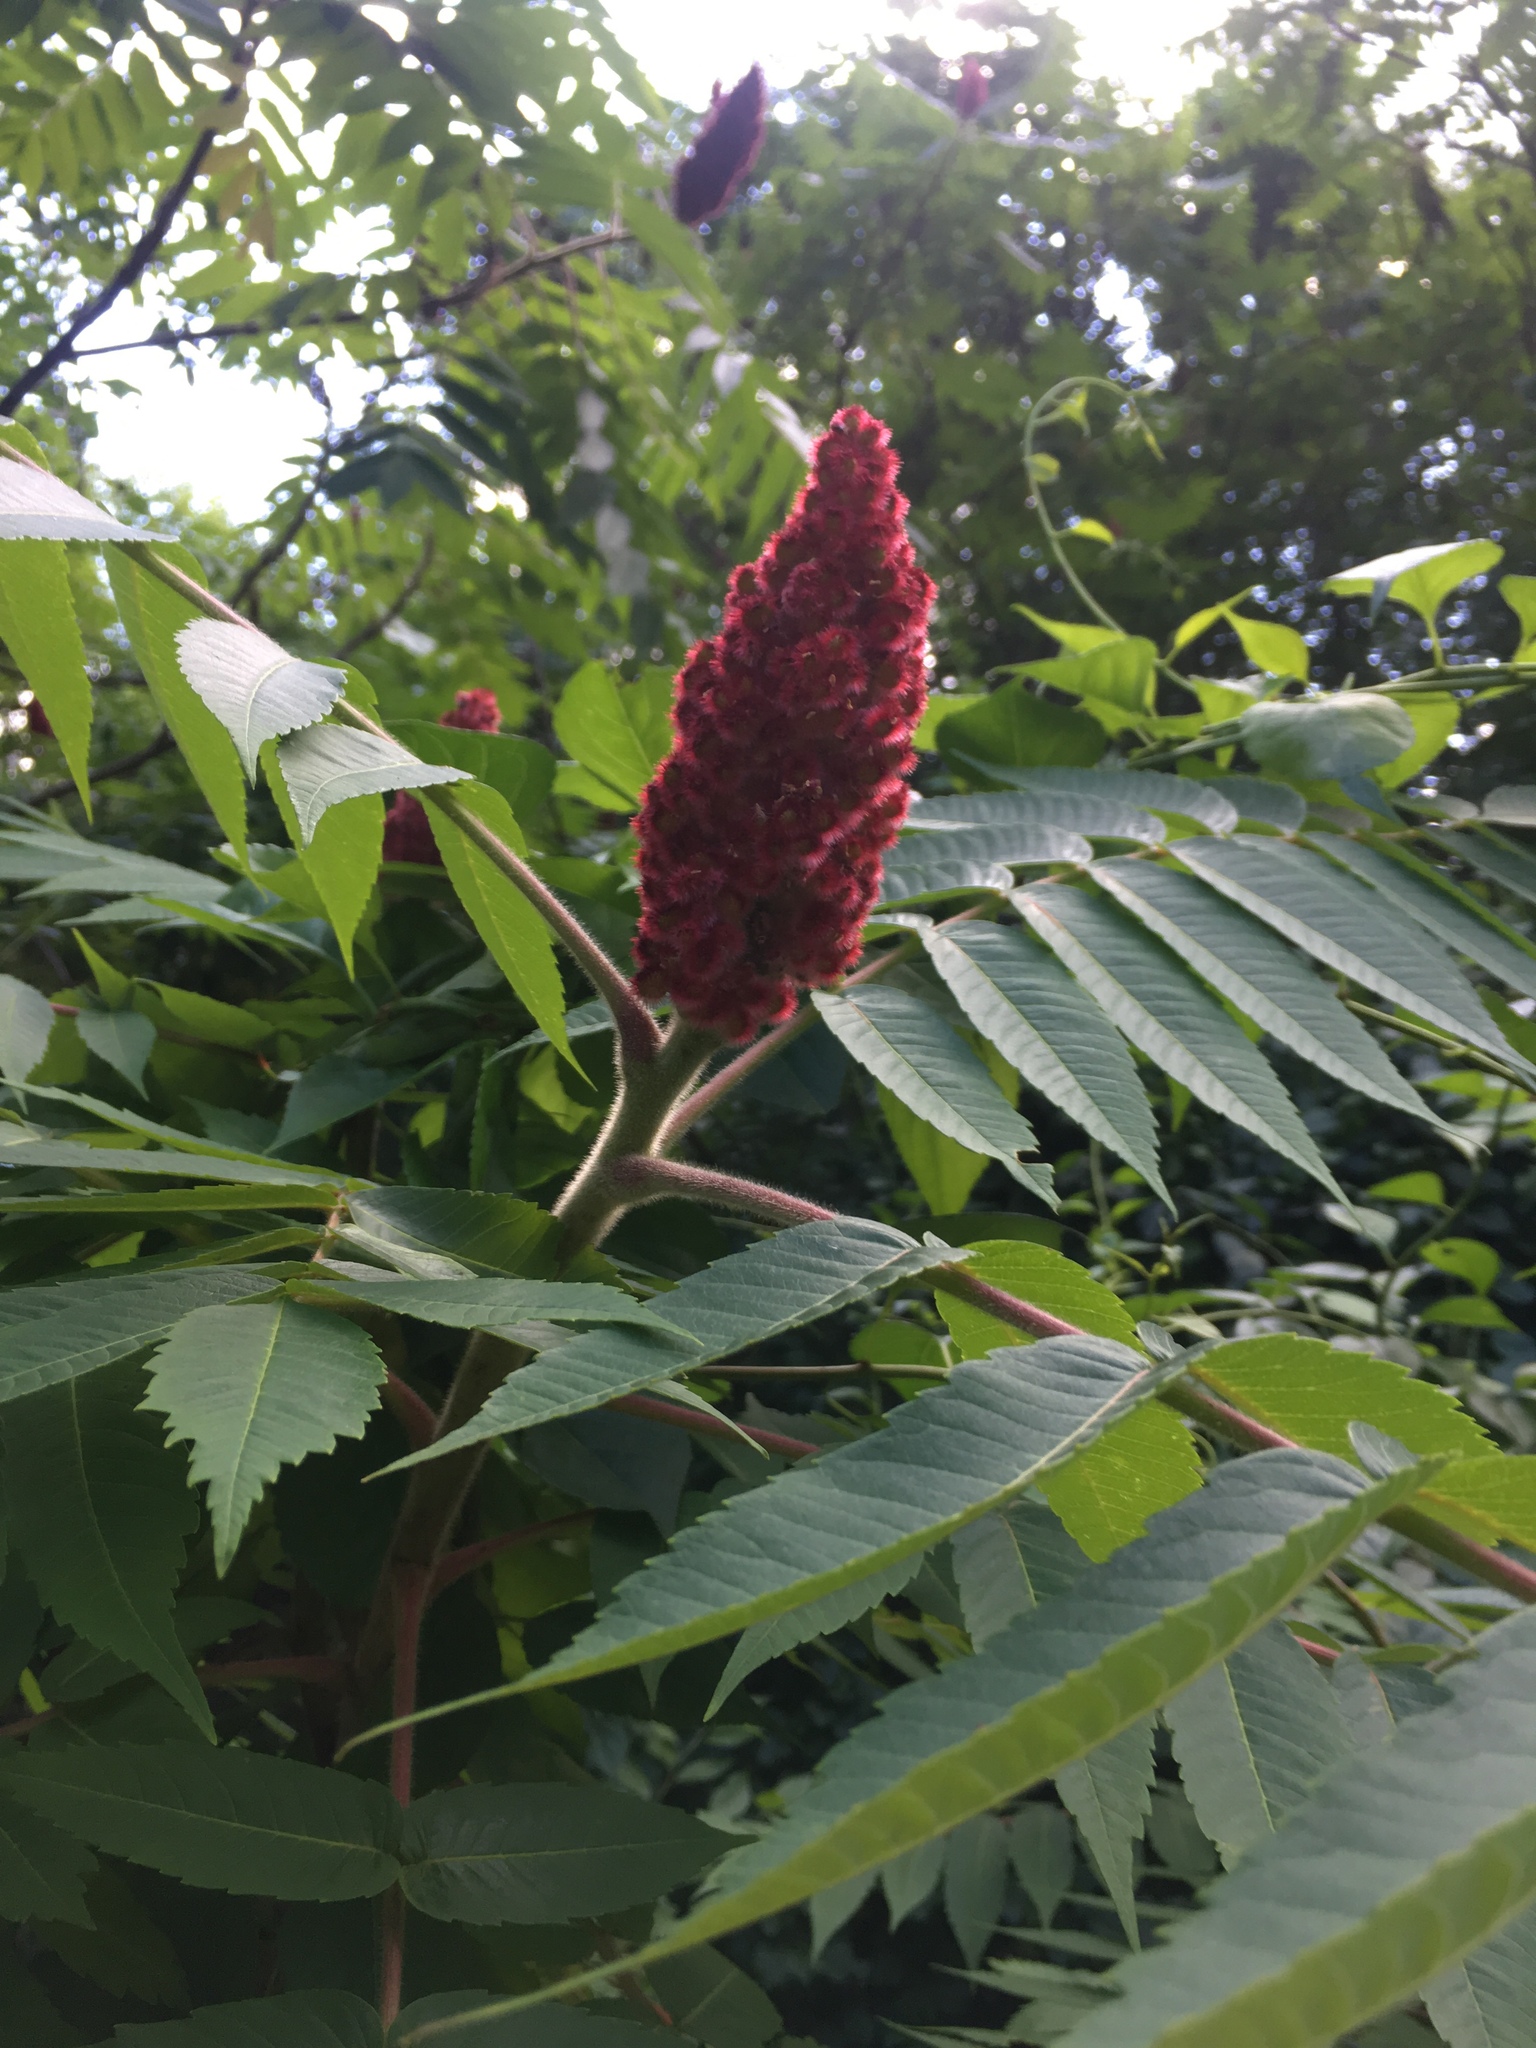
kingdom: Plantae
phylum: Tracheophyta
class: Magnoliopsida
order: Sapindales
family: Anacardiaceae
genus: Rhus
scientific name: Rhus typhina
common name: Staghorn sumac
